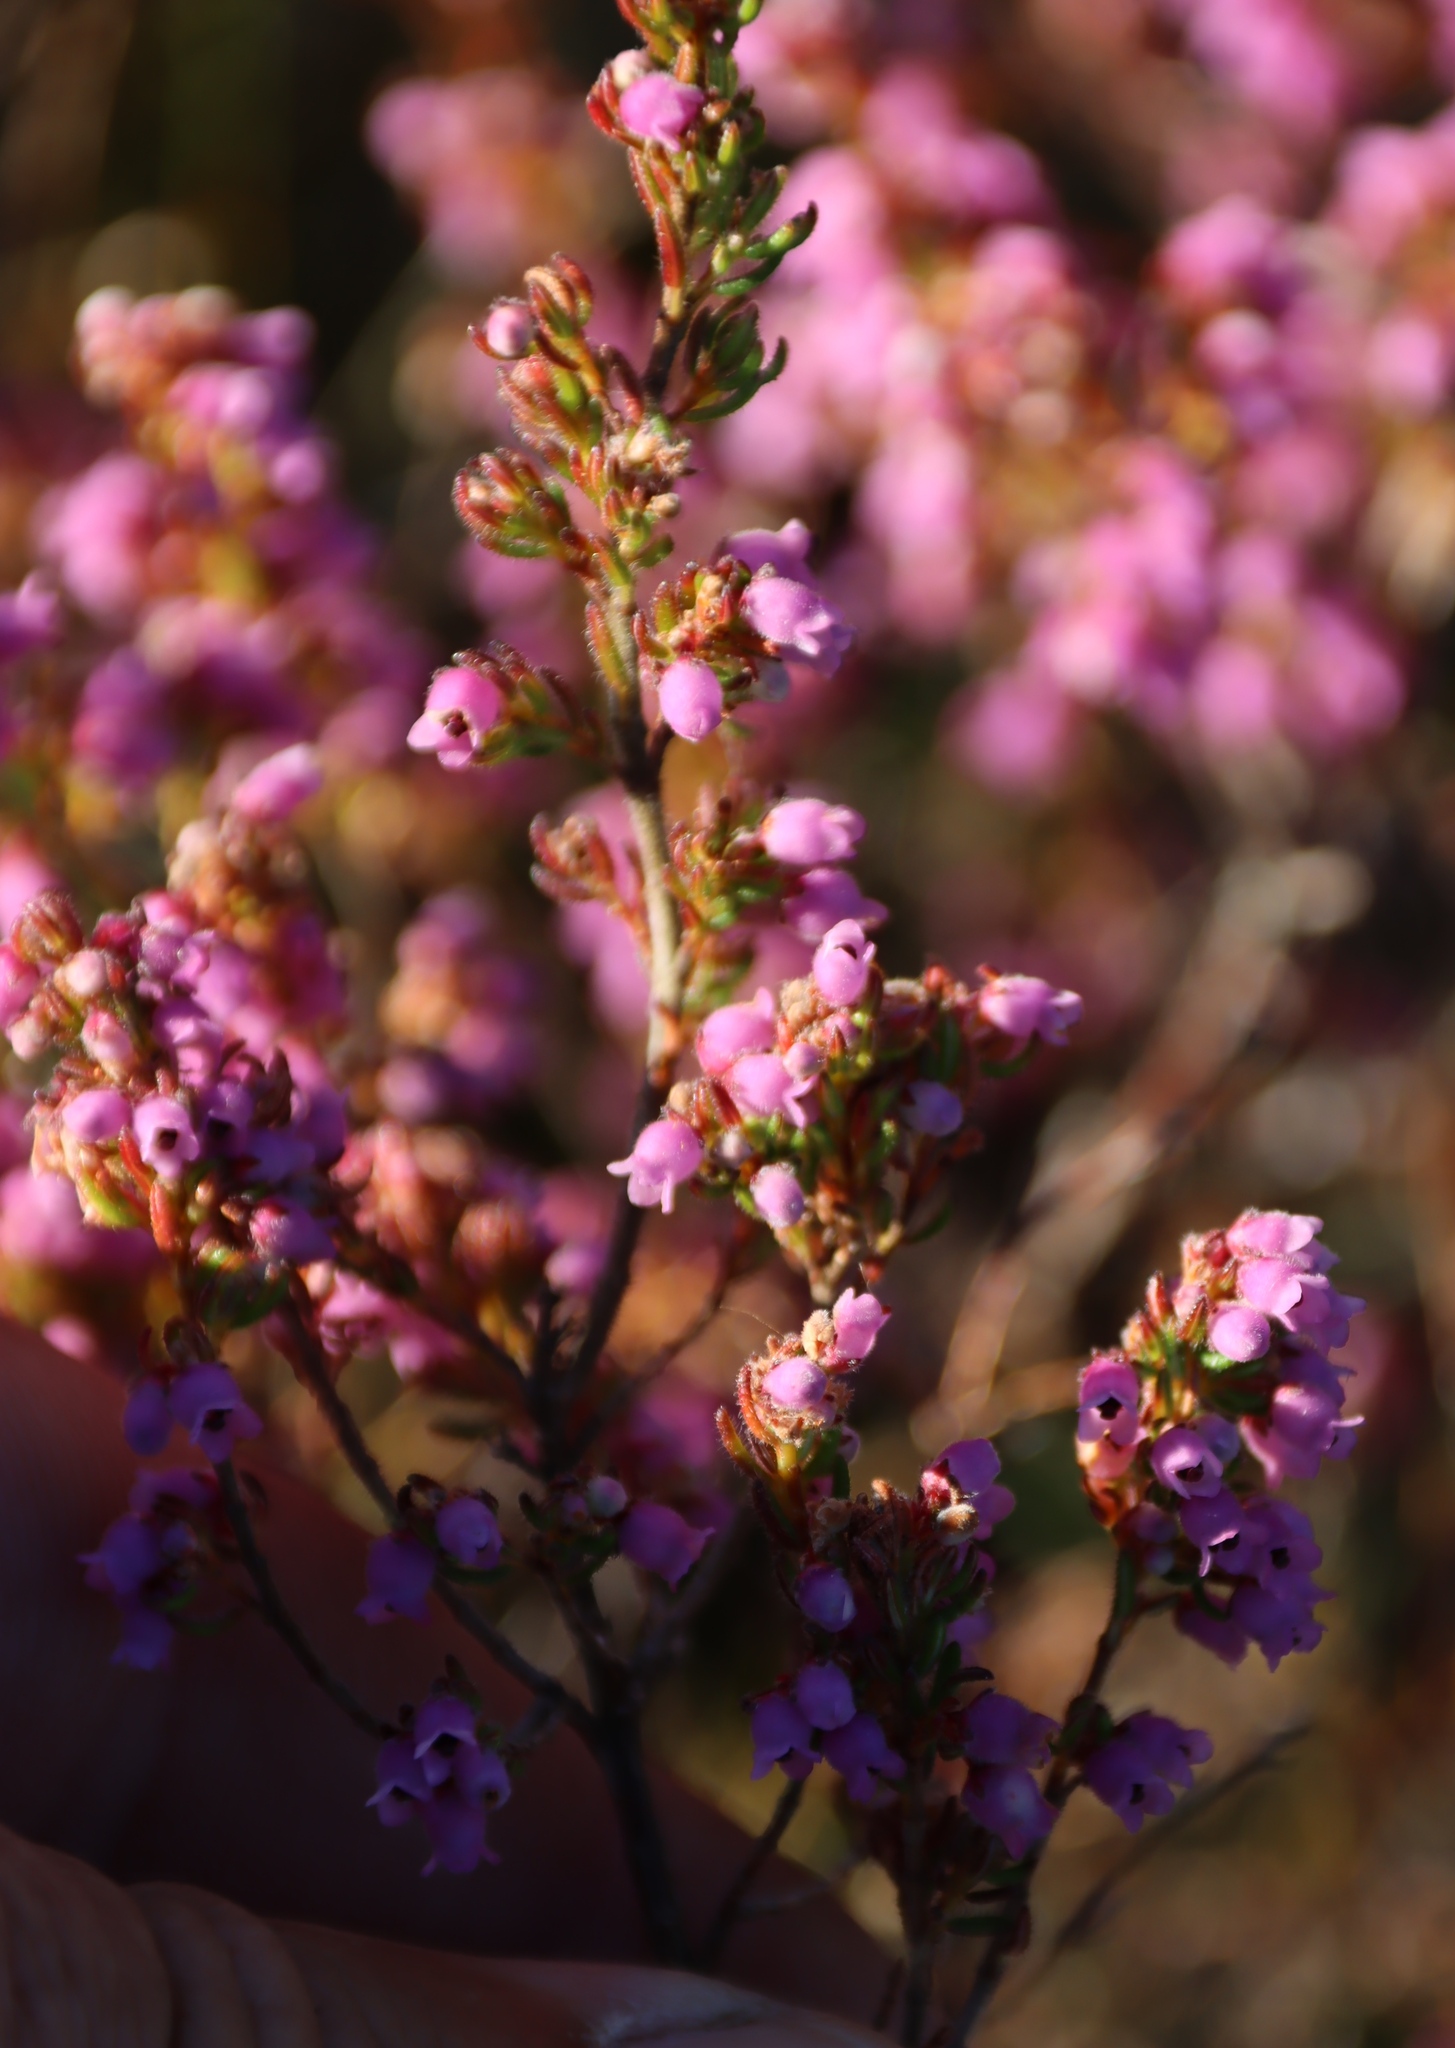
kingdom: Plantae
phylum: Tracheophyta
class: Magnoliopsida
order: Ericales
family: Ericaceae
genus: Erica
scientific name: Erica mollis
